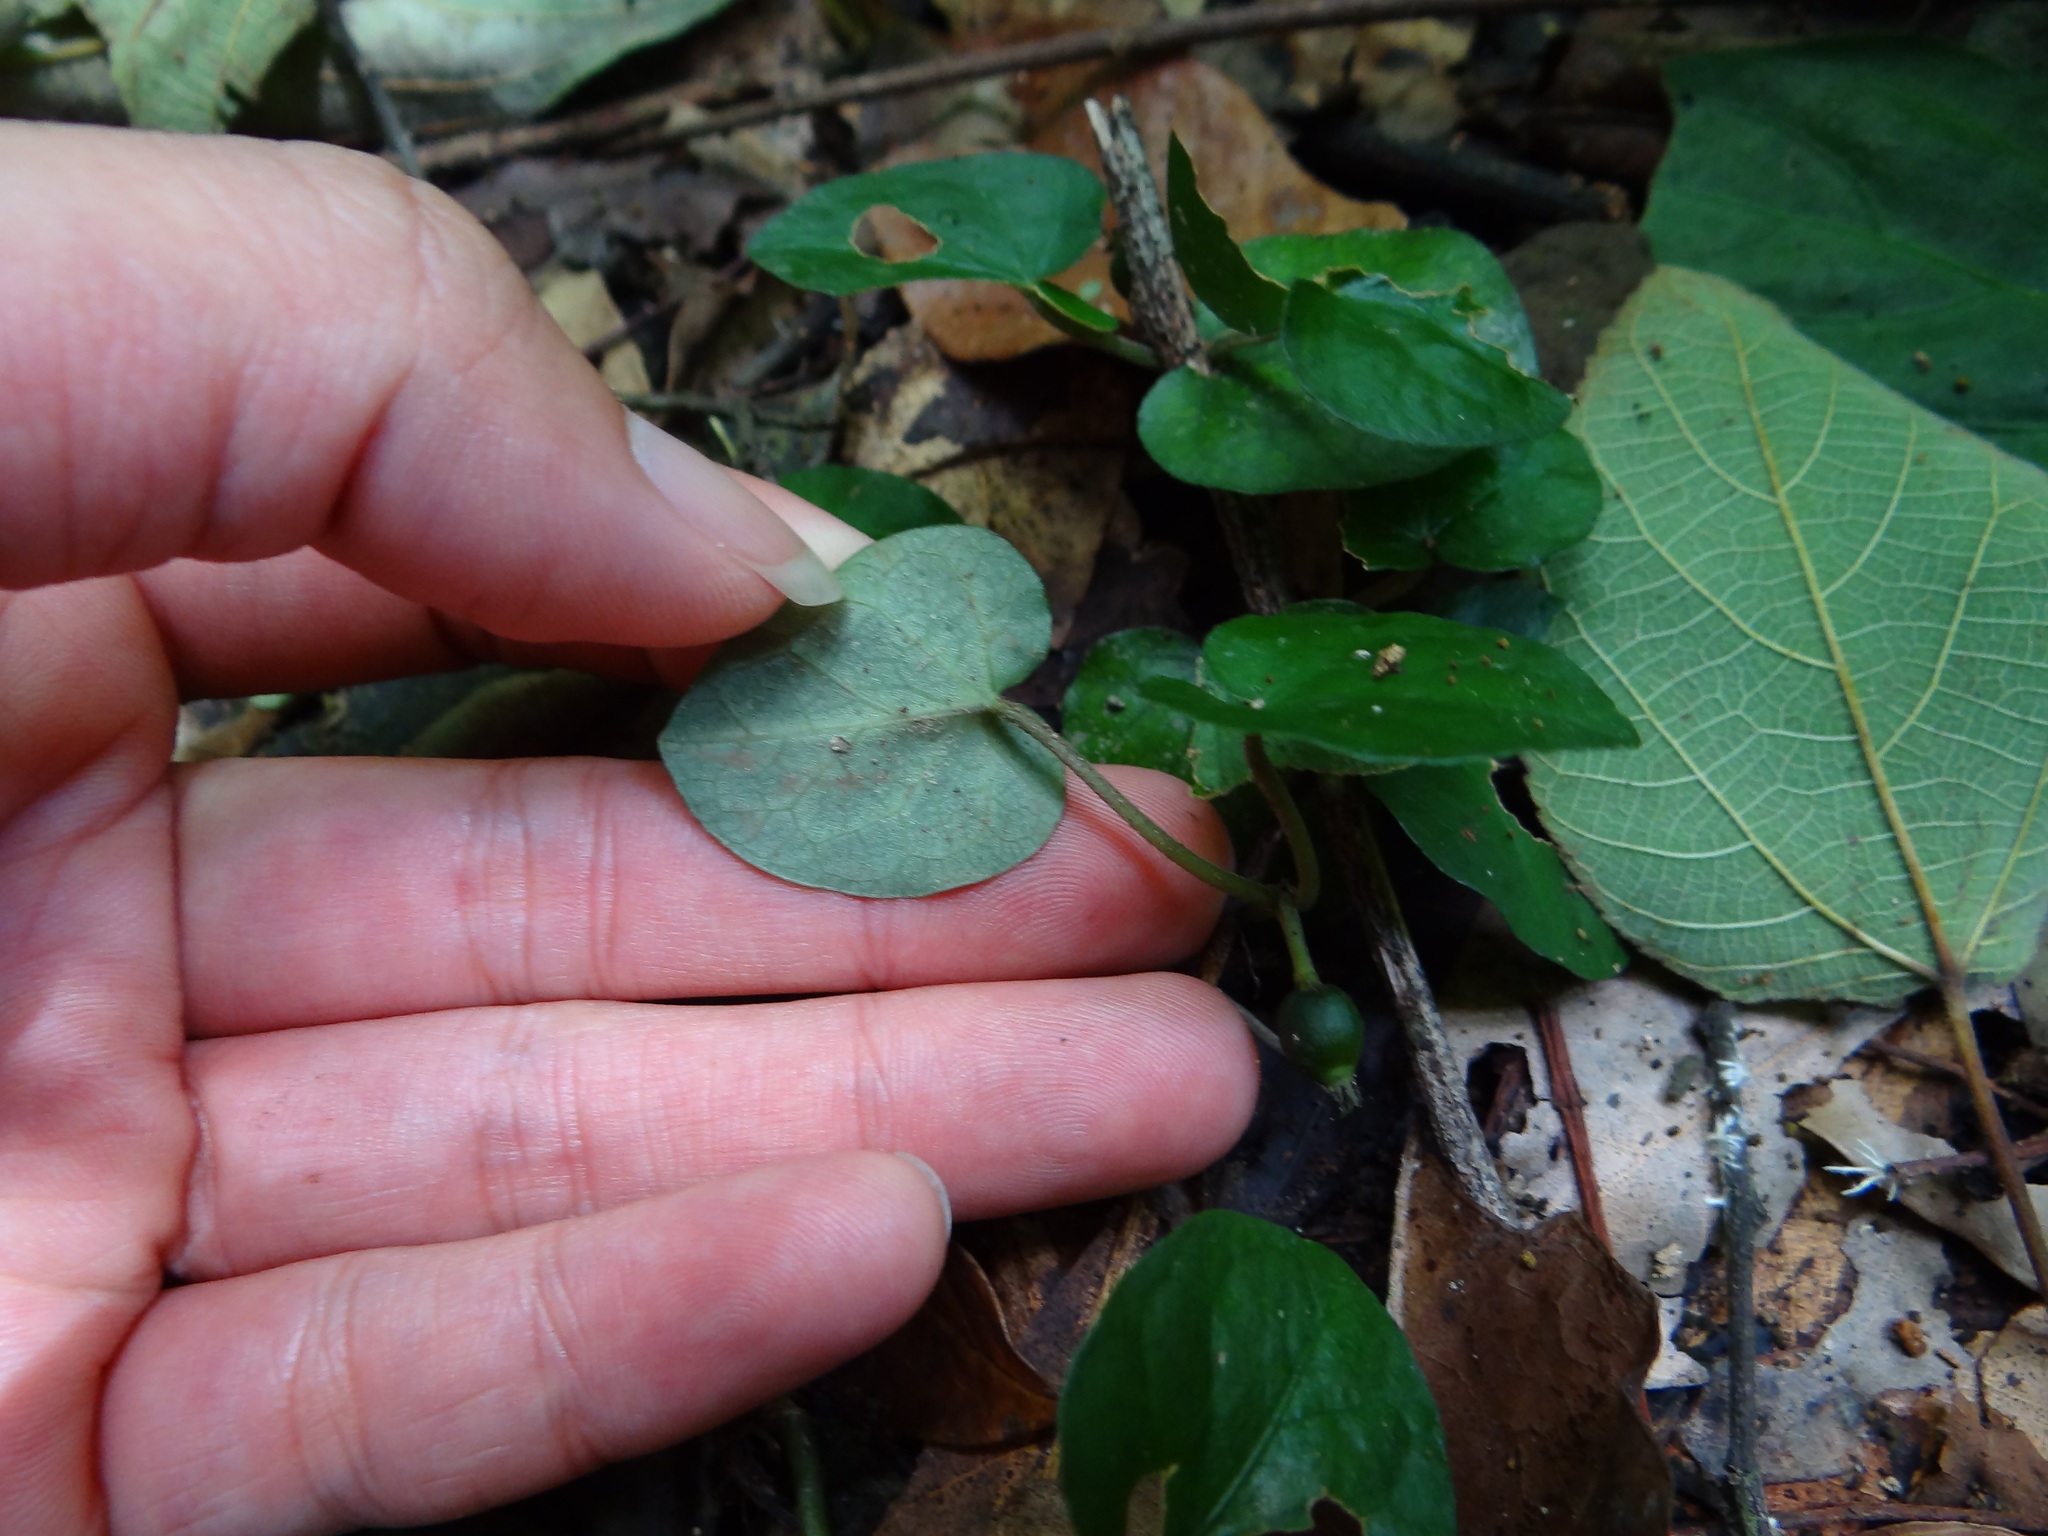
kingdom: Plantae
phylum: Tracheophyta
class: Magnoliopsida
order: Gentianales
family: Rubiaceae
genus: Geophila
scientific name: Geophila herbacea
